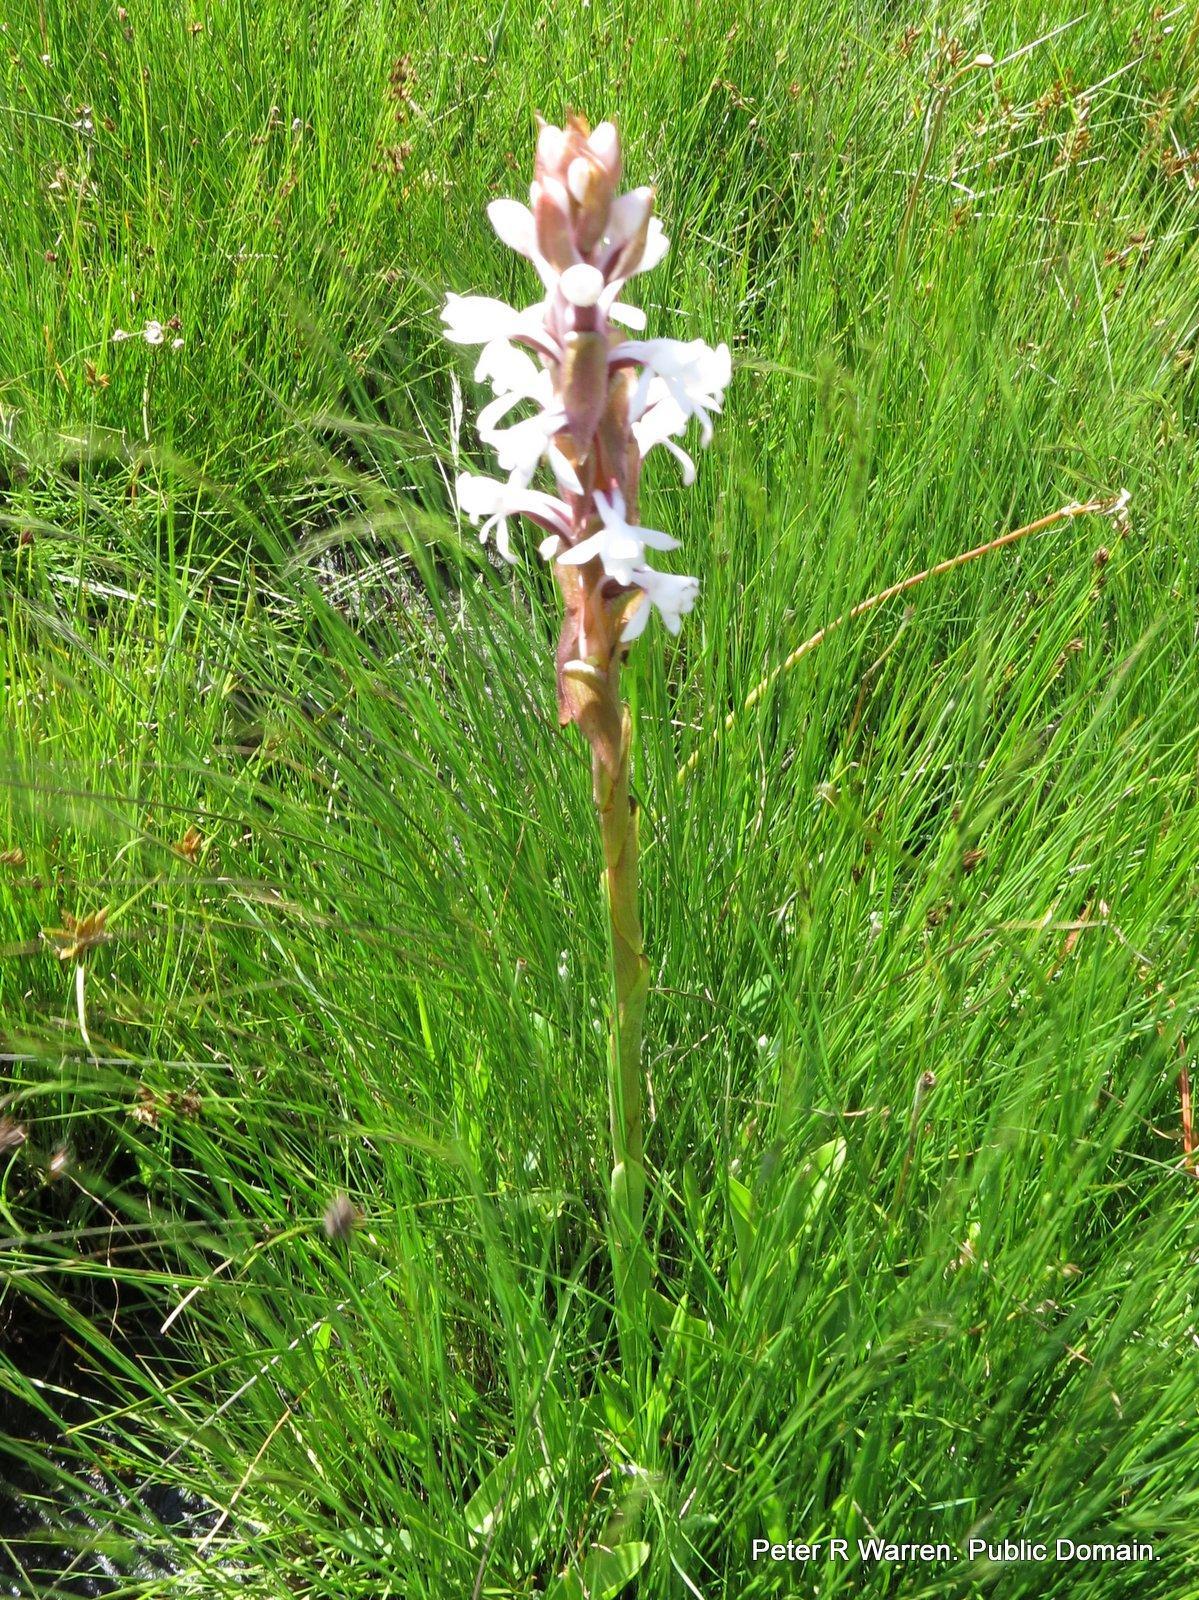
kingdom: Plantae
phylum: Tracheophyta
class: Liliopsida
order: Asparagales
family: Orchidaceae
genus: Satyrium
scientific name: Satyrium longicauda
